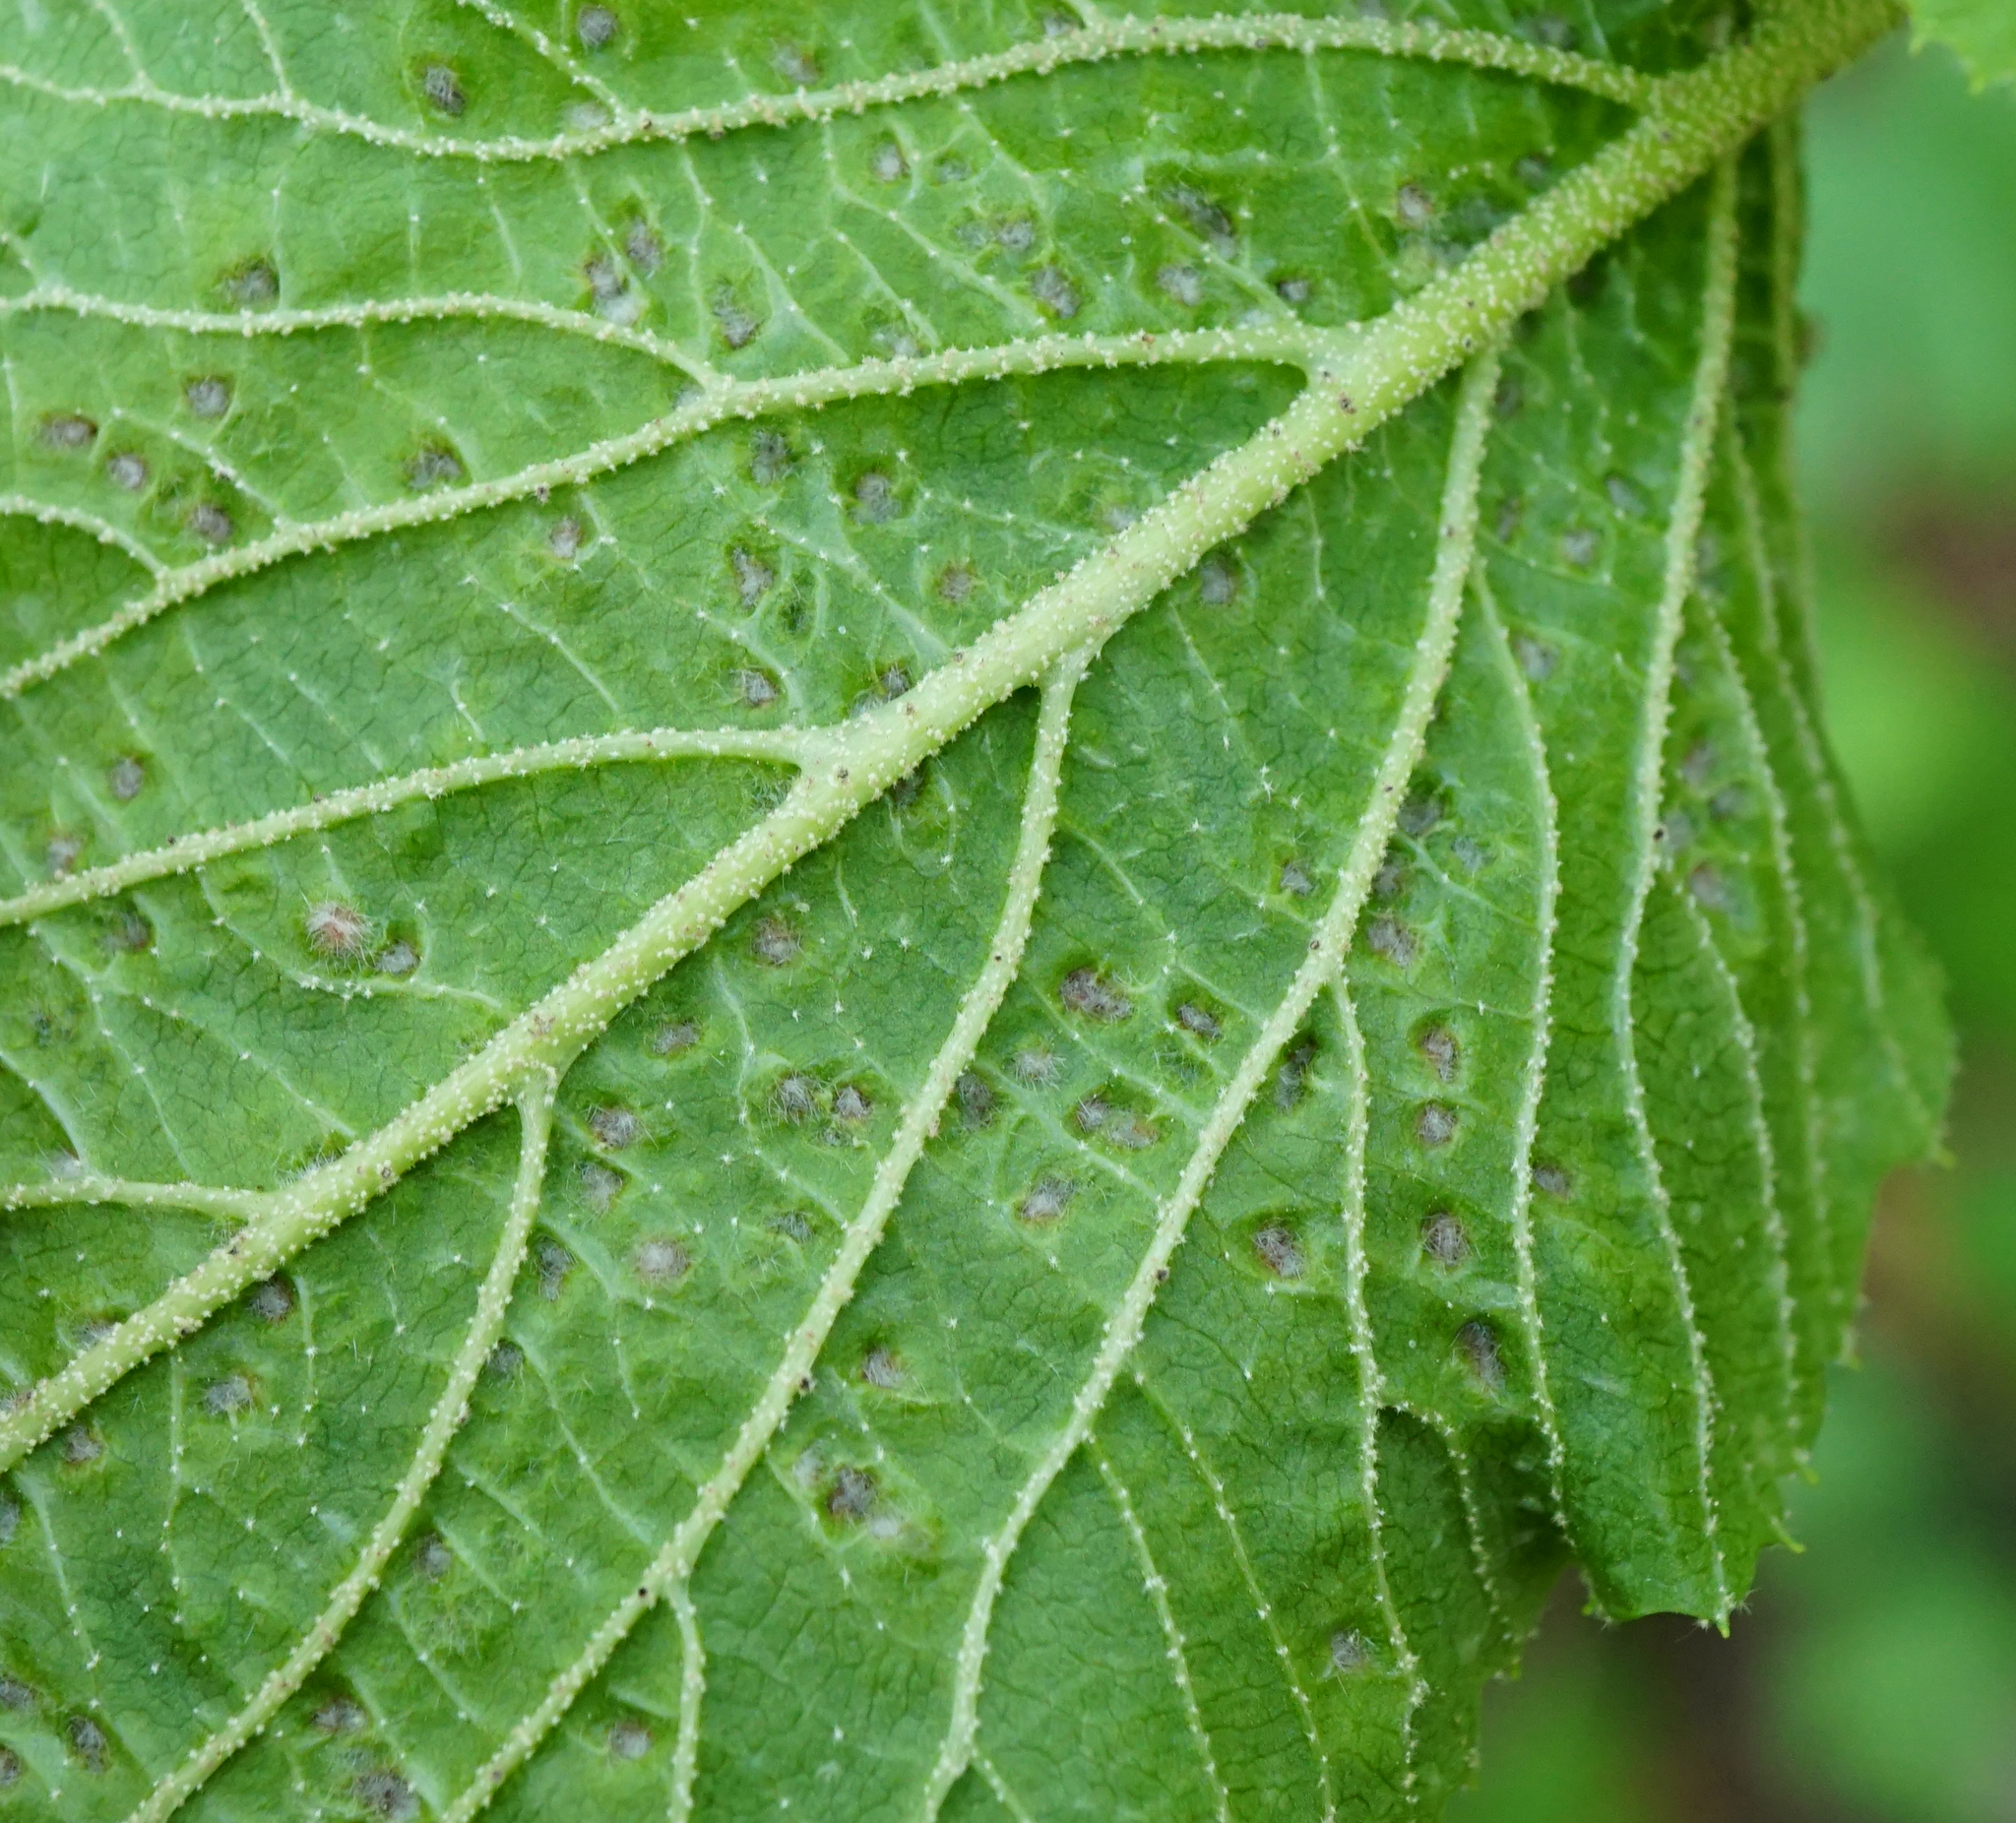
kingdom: Animalia
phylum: Arthropoda
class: Arachnida
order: Trombidiformes
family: Eriophyidae
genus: Eriophyes
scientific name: Eriophyes viburni
